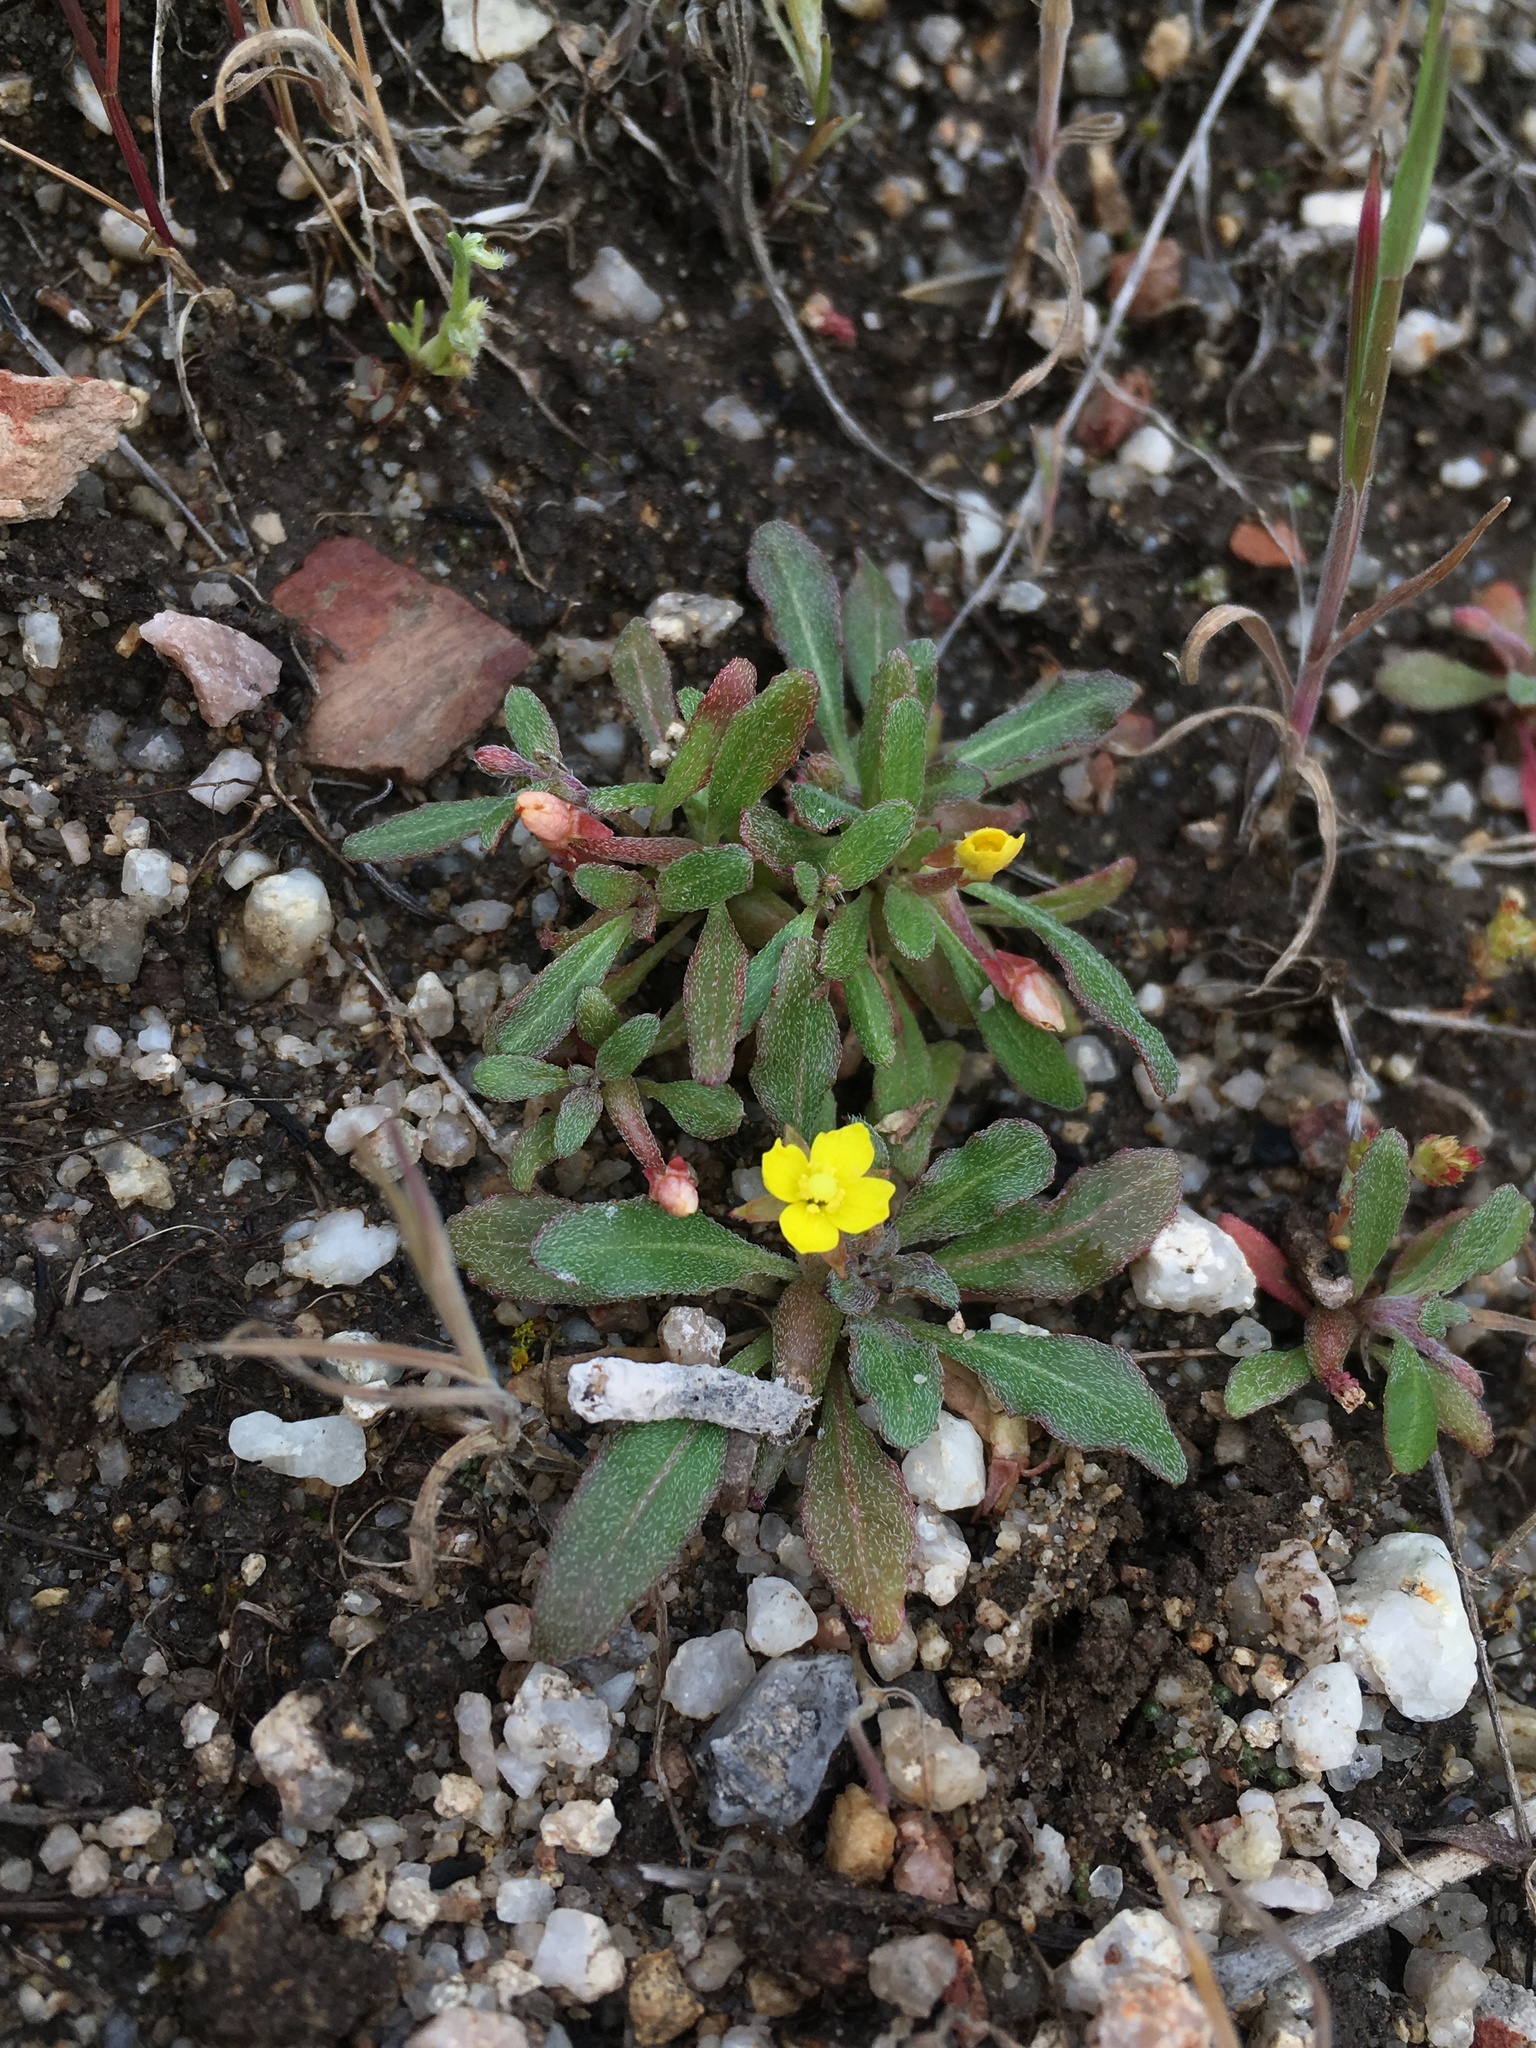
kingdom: Plantae
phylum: Tracheophyta
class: Magnoliopsida
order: Myrtales
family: Onagraceae
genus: Camissoniopsis
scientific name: Camissoniopsis ignota
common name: Jurupa hills suncup
